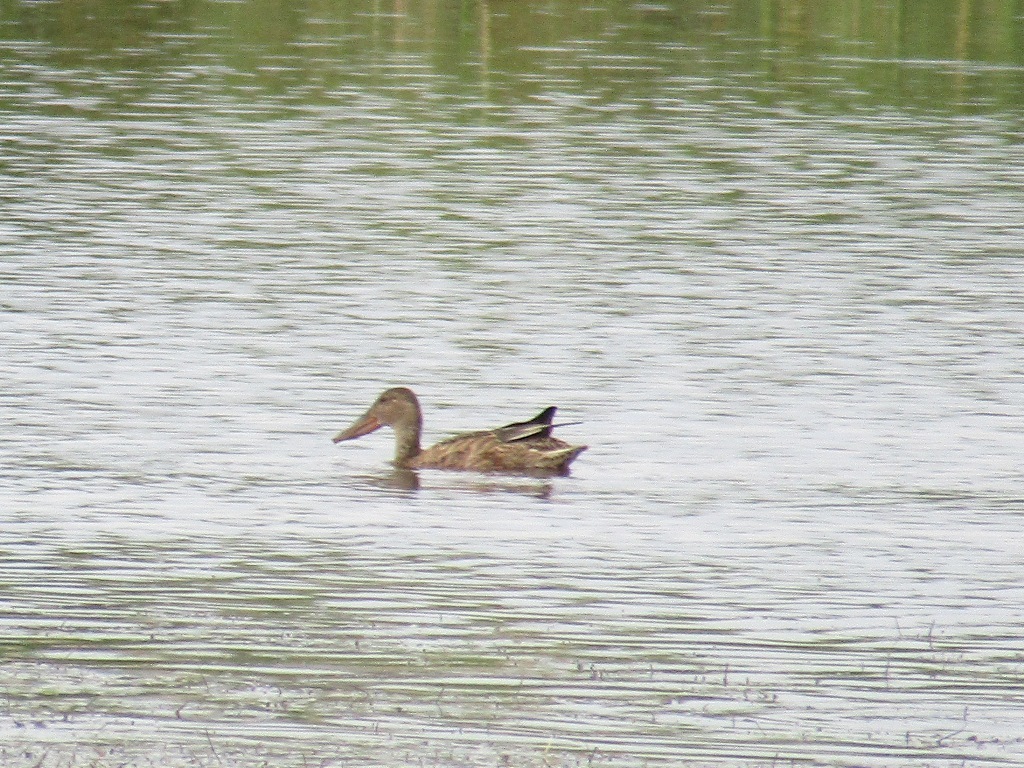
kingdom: Animalia
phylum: Chordata
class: Aves
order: Anseriformes
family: Anatidae
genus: Spatula
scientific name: Spatula clypeata
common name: Northern shoveler
